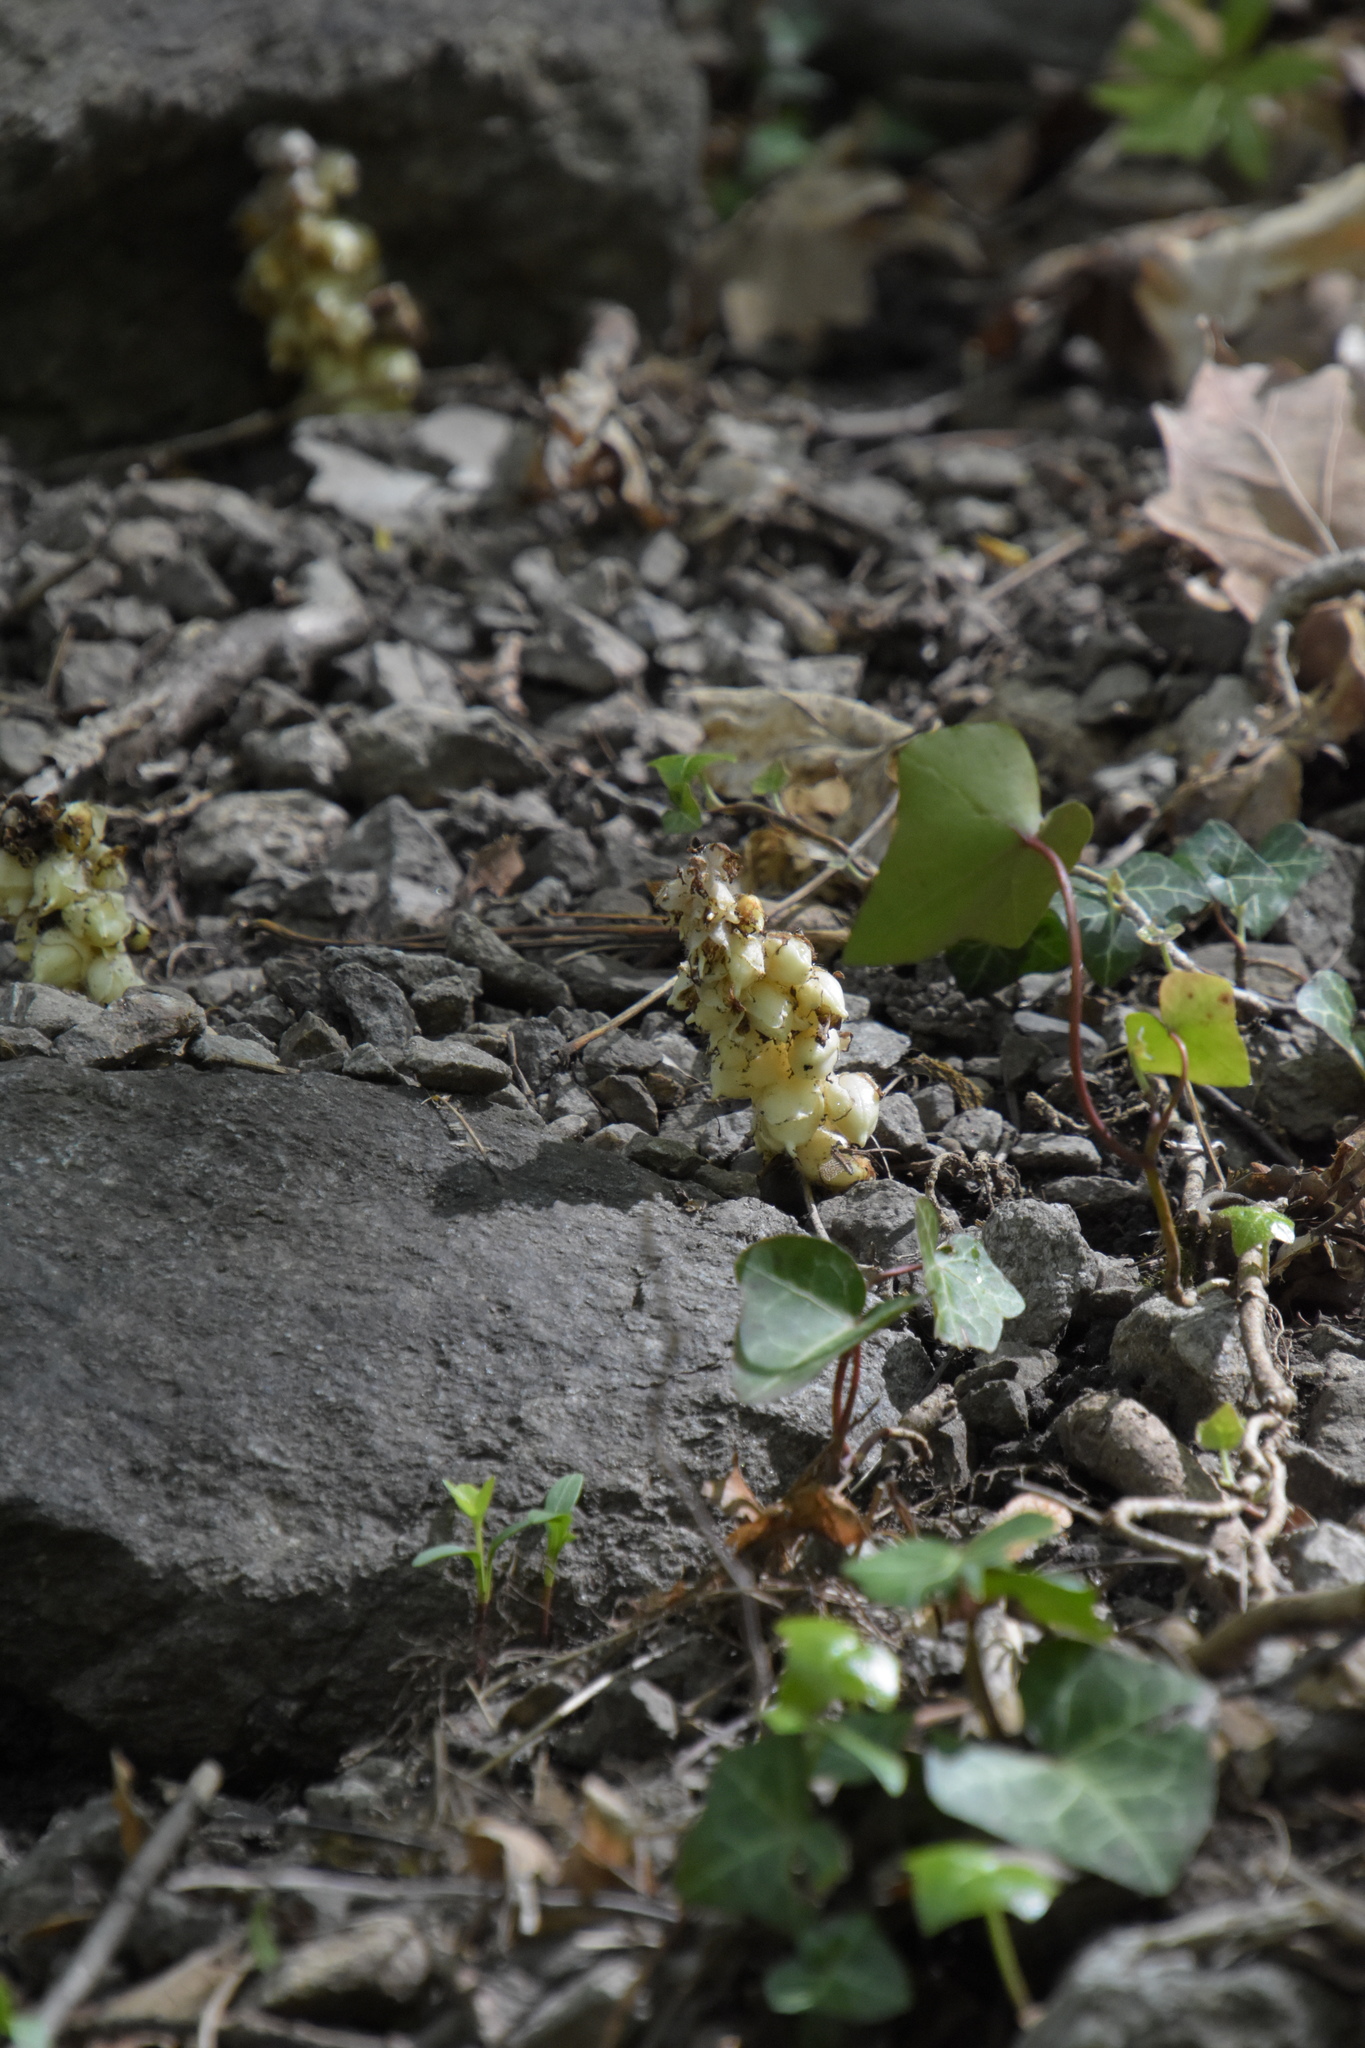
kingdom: Plantae
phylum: Tracheophyta
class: Magnoliopsida
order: Lamiales
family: Orobanchaceae
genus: Lathraea
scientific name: Lathraea squamaria
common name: Toothwort
